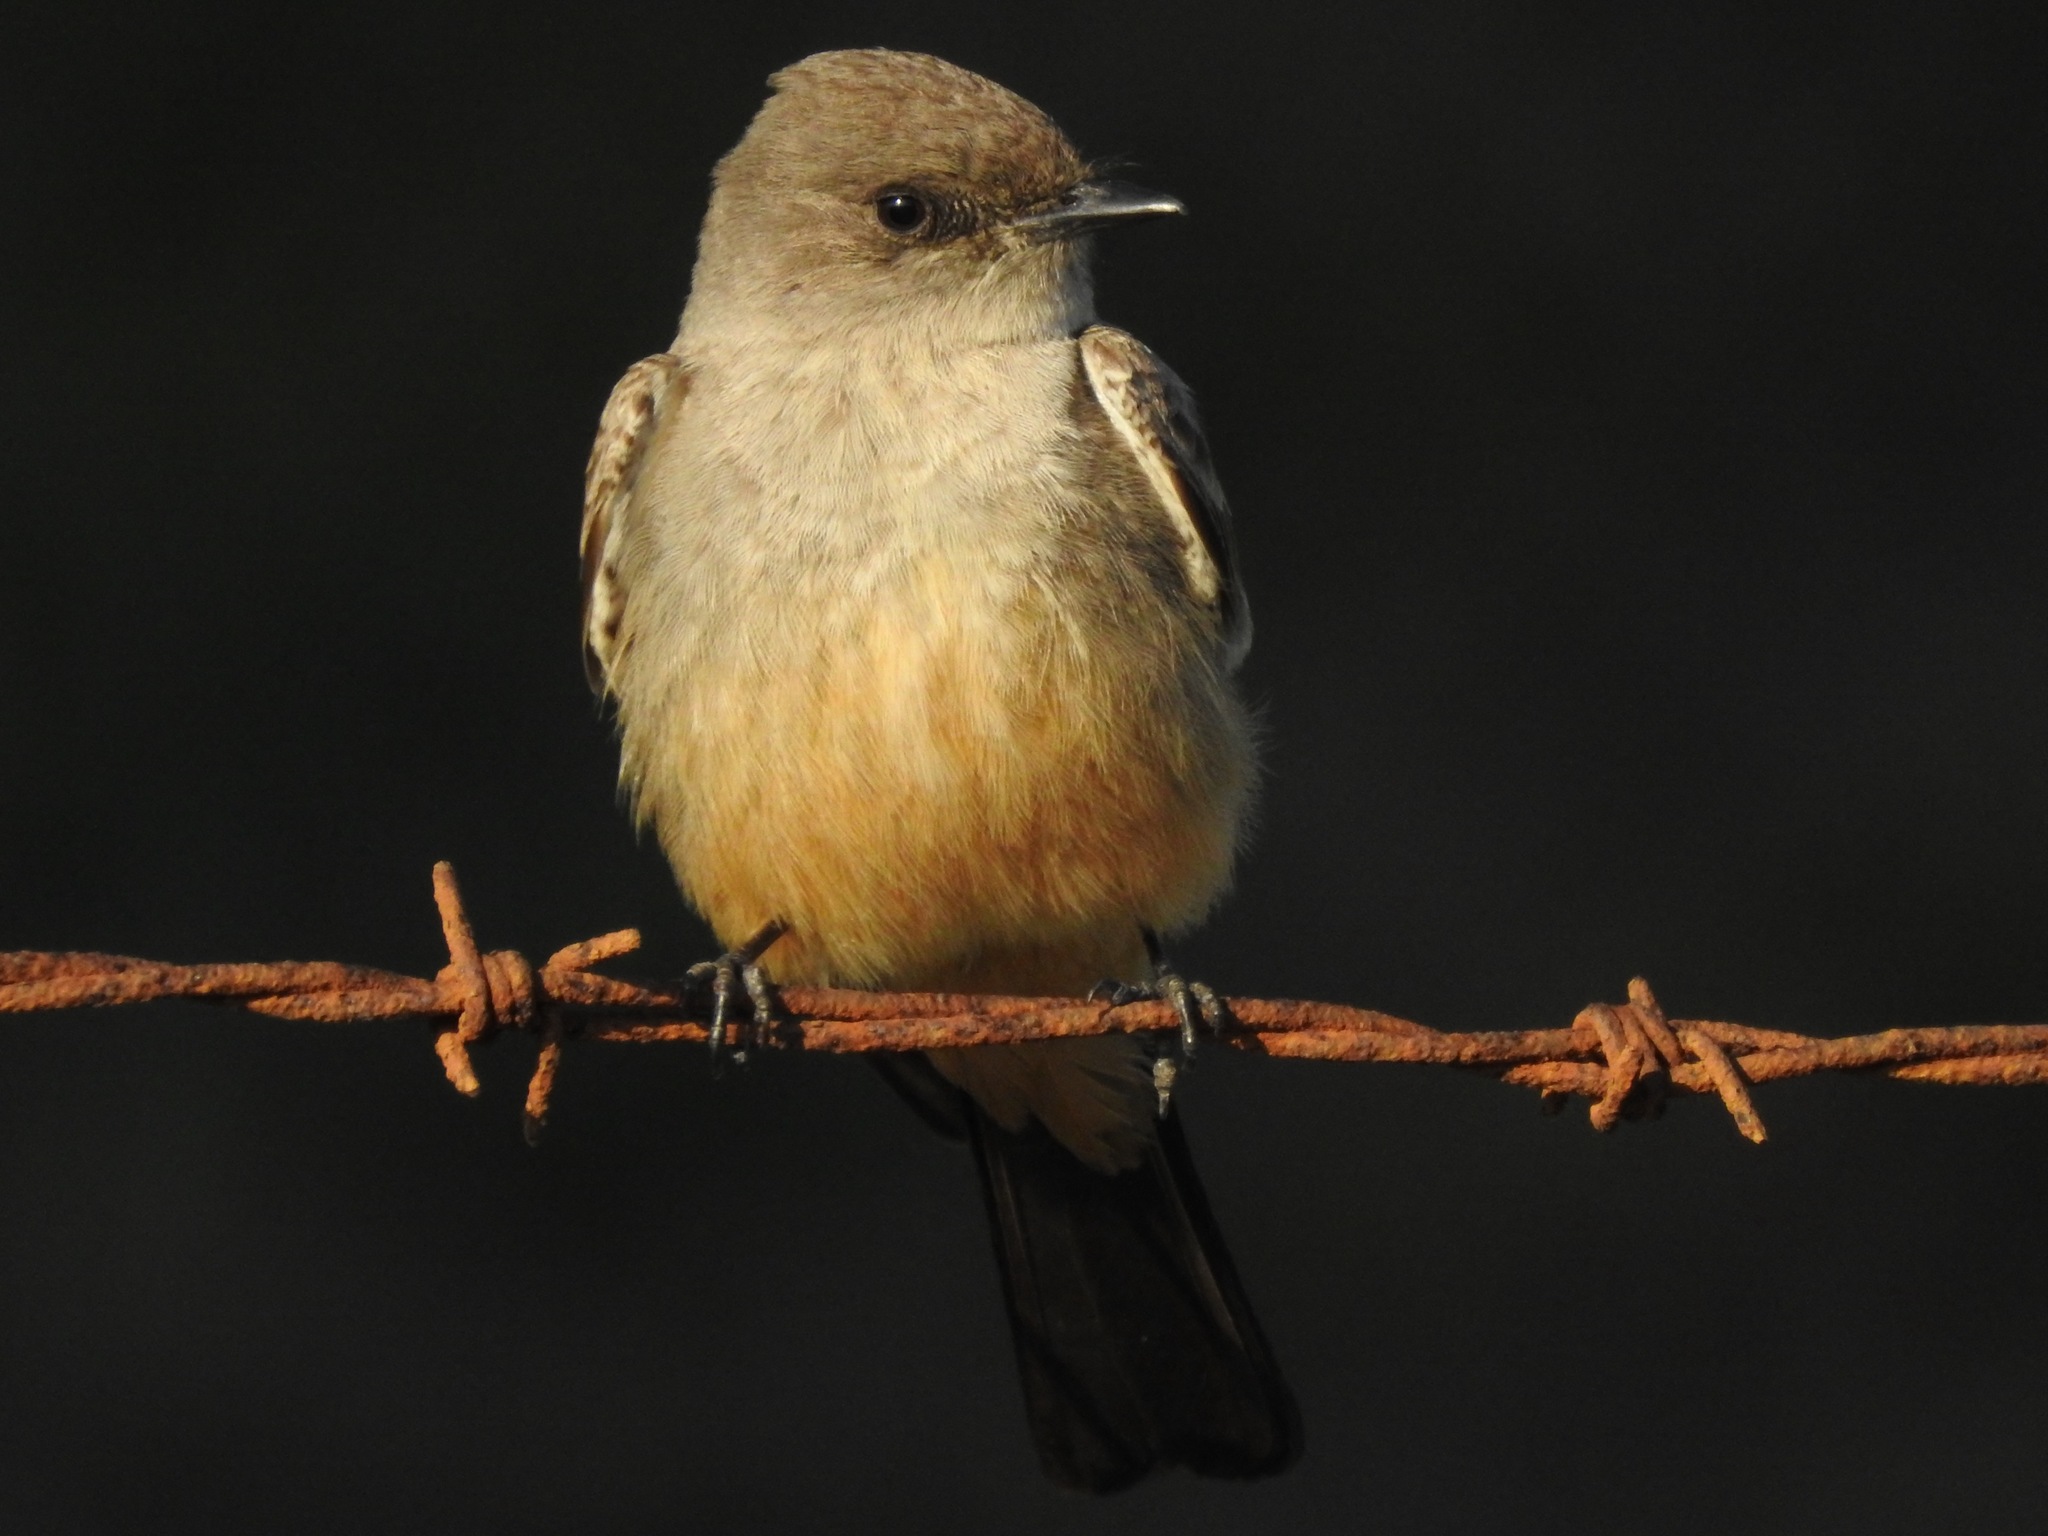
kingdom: Animalia
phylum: Chordata
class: Aves
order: Passeriformes
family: Tyrannidae
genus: Sayornis
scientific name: Sayornis saya
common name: Say's phoebe
